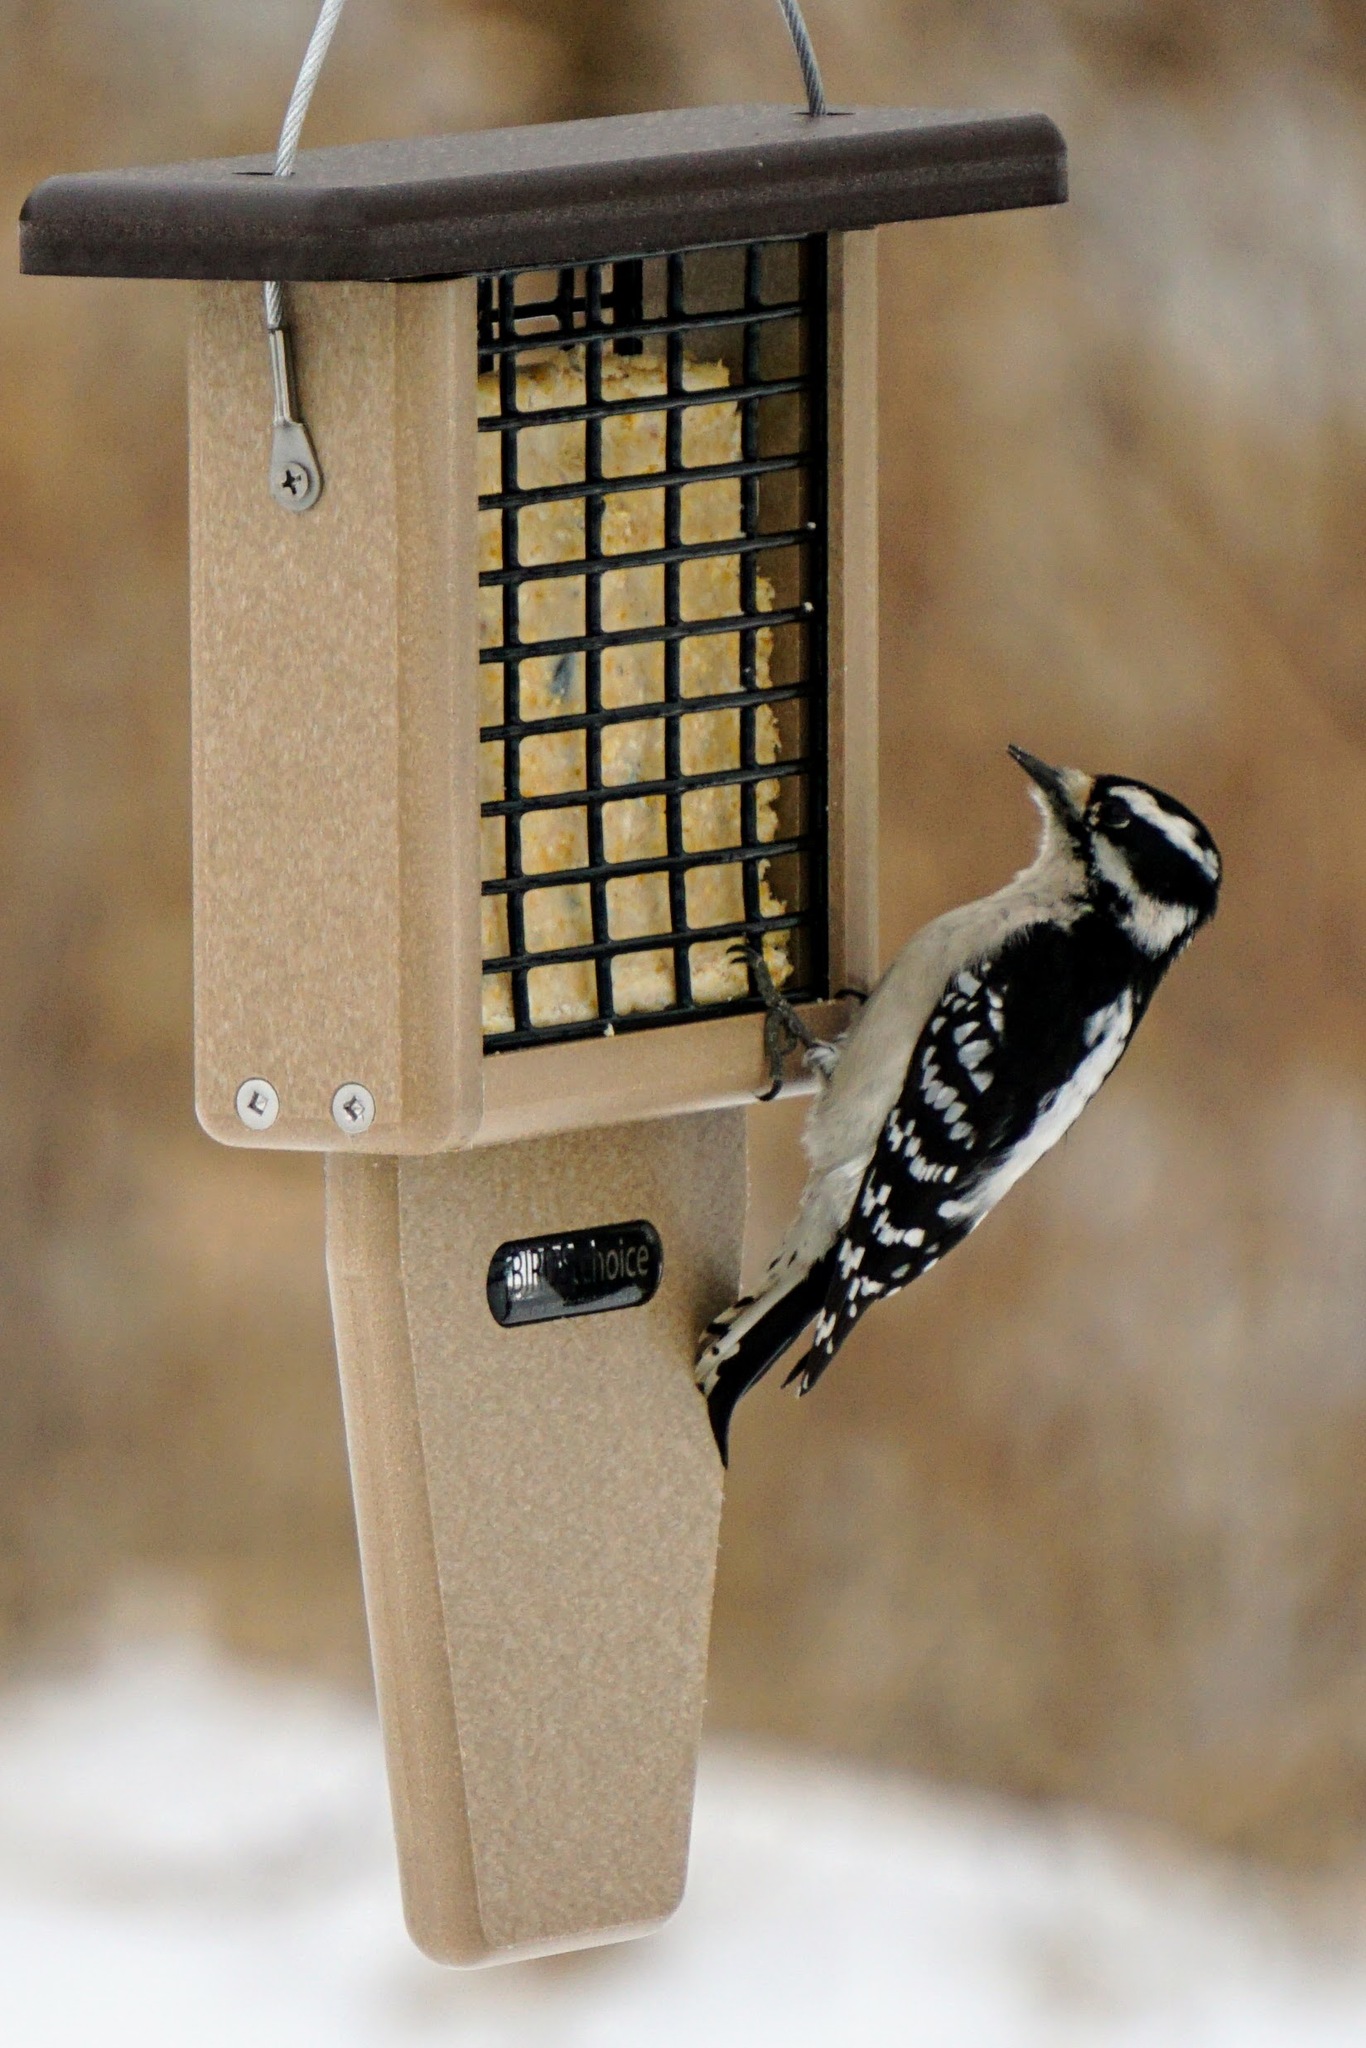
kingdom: Animalia
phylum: Chordata
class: Aves
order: Piciformes
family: Picidae
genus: Dryobates
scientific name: Dryobates pubescens
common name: Downy woodpecker
